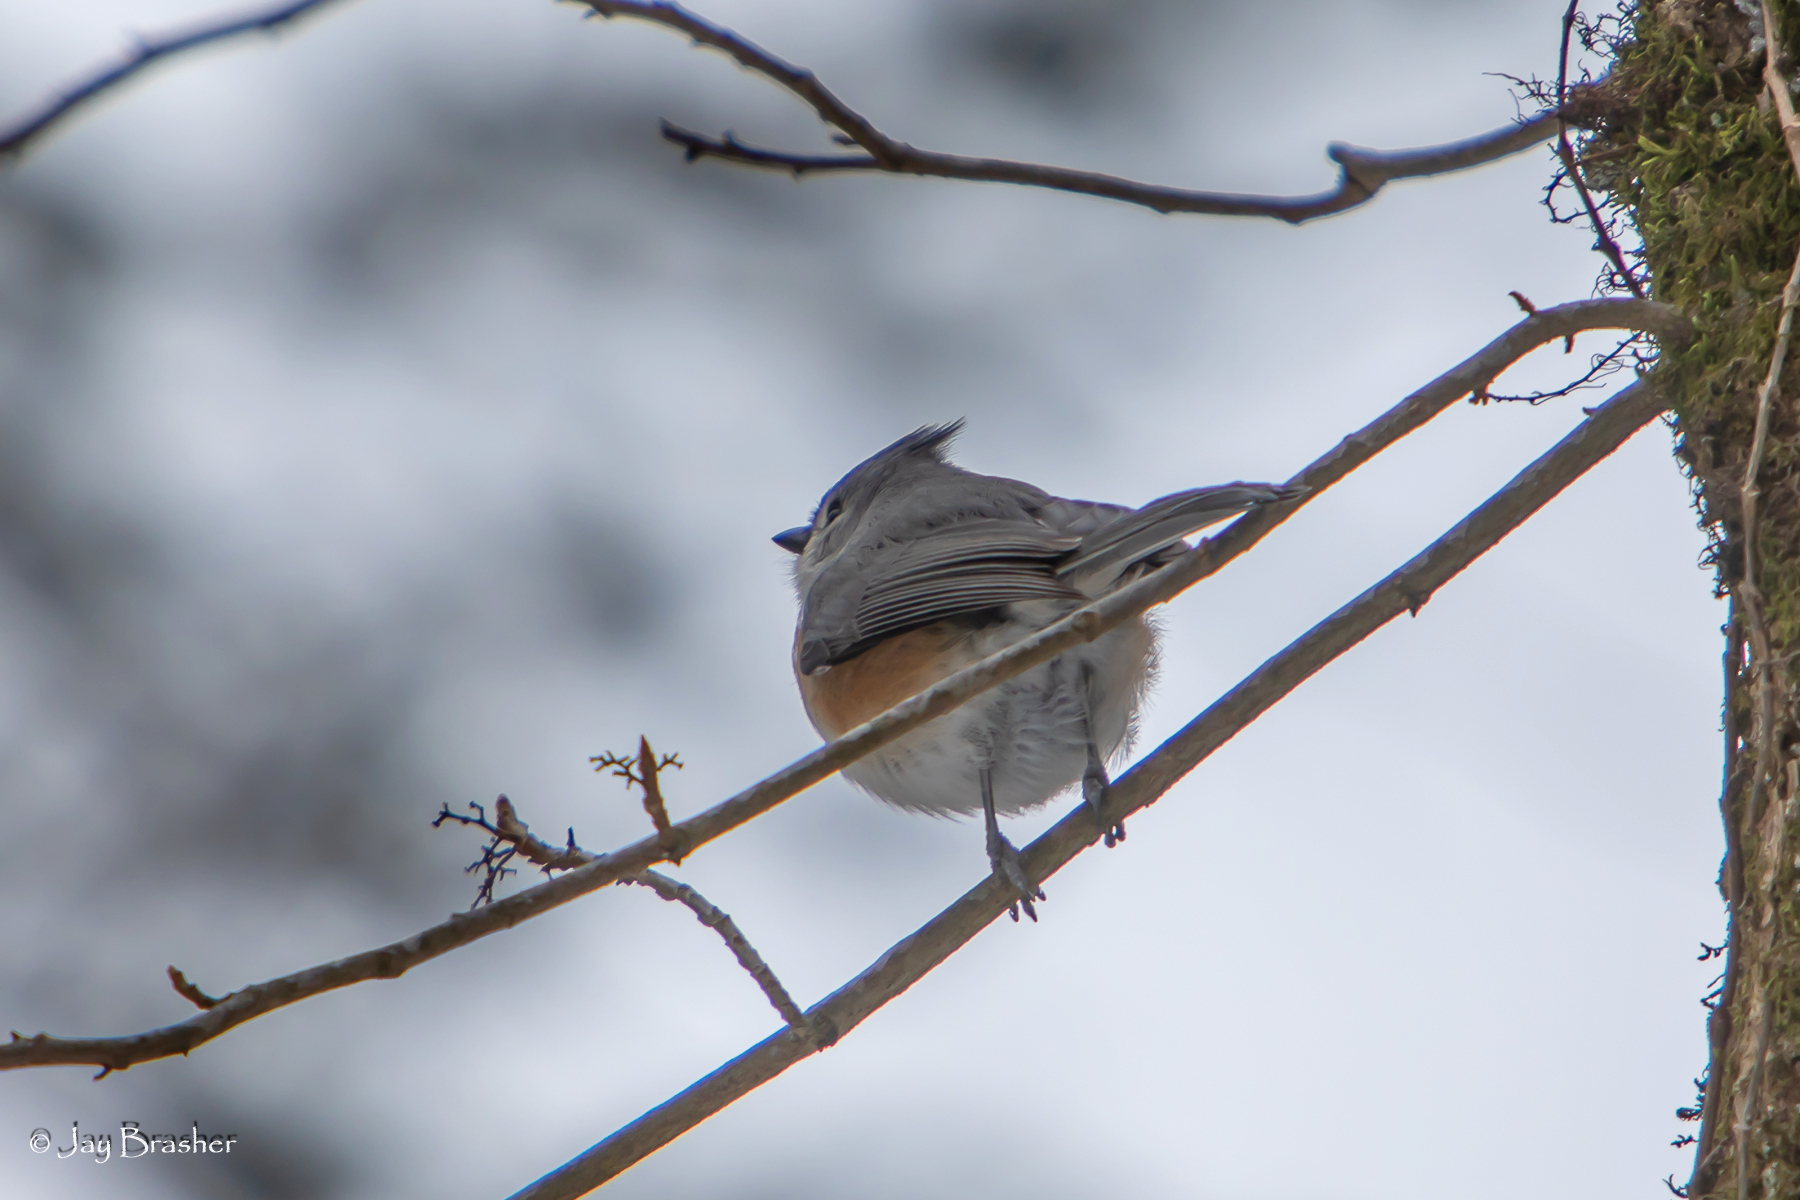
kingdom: Animalia
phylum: Chordata
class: Aves
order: Passeriformes
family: Paridae
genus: Baeolophus
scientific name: Baeolophus bicolor
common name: Tufted titmouse
